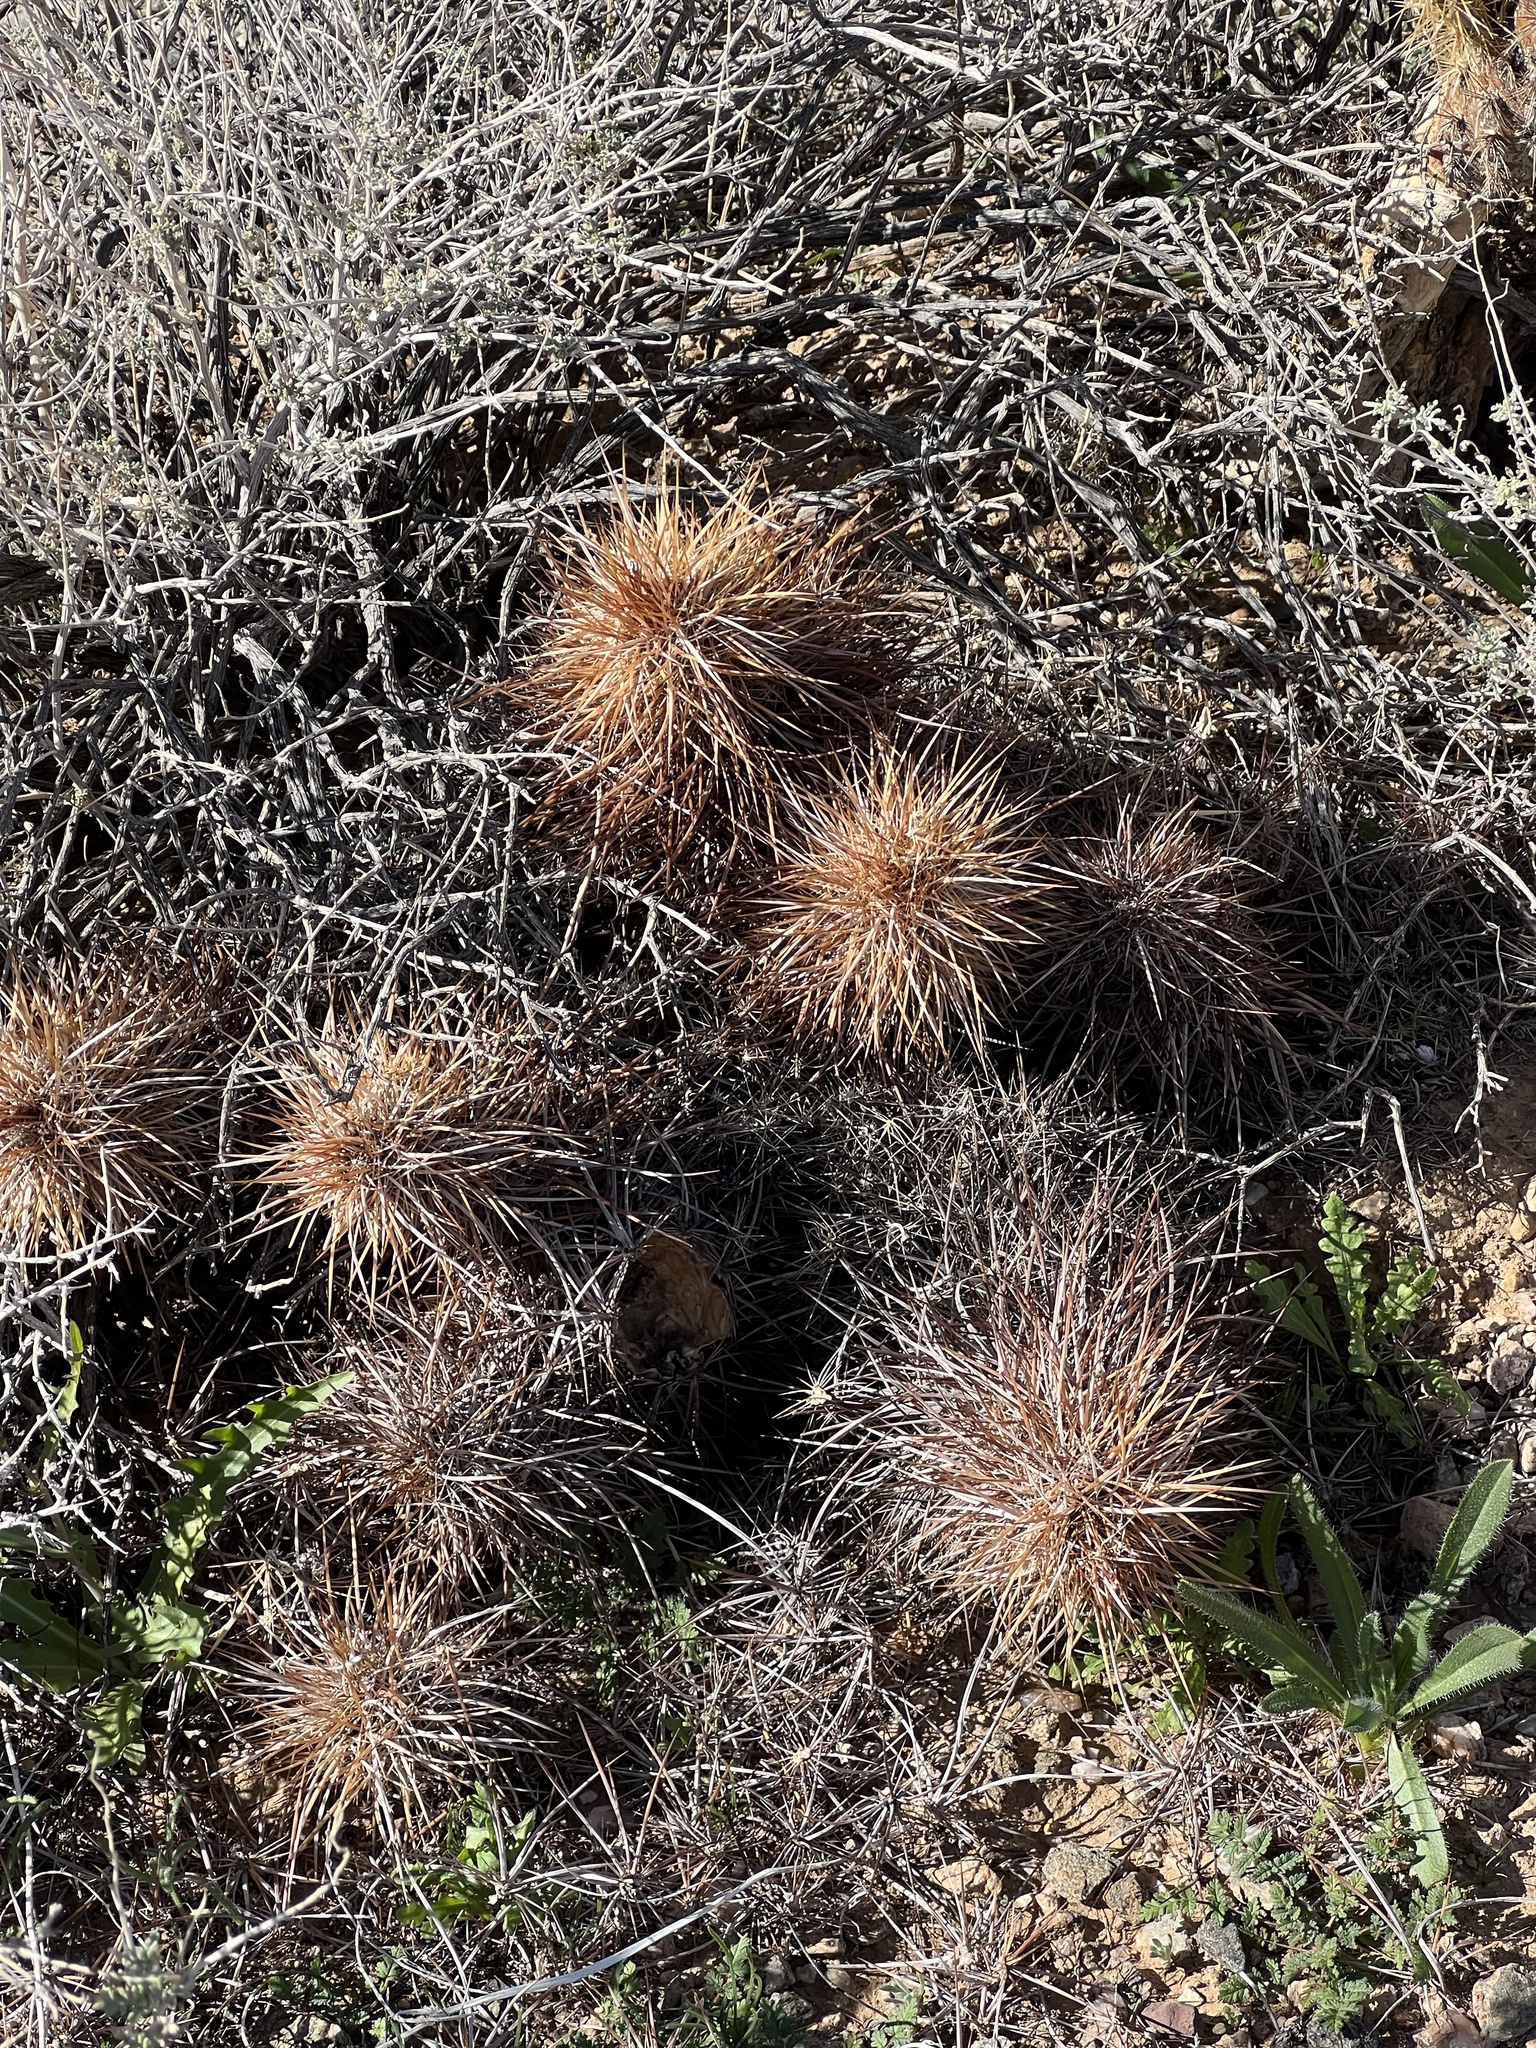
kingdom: Plantae
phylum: Tracheophyta
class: Magnoliopsida
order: Caryophyllales
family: Cactaceae
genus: Echinocereus
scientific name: Echinocereus engelmannii
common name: Engelmann's hedgehog cactus
